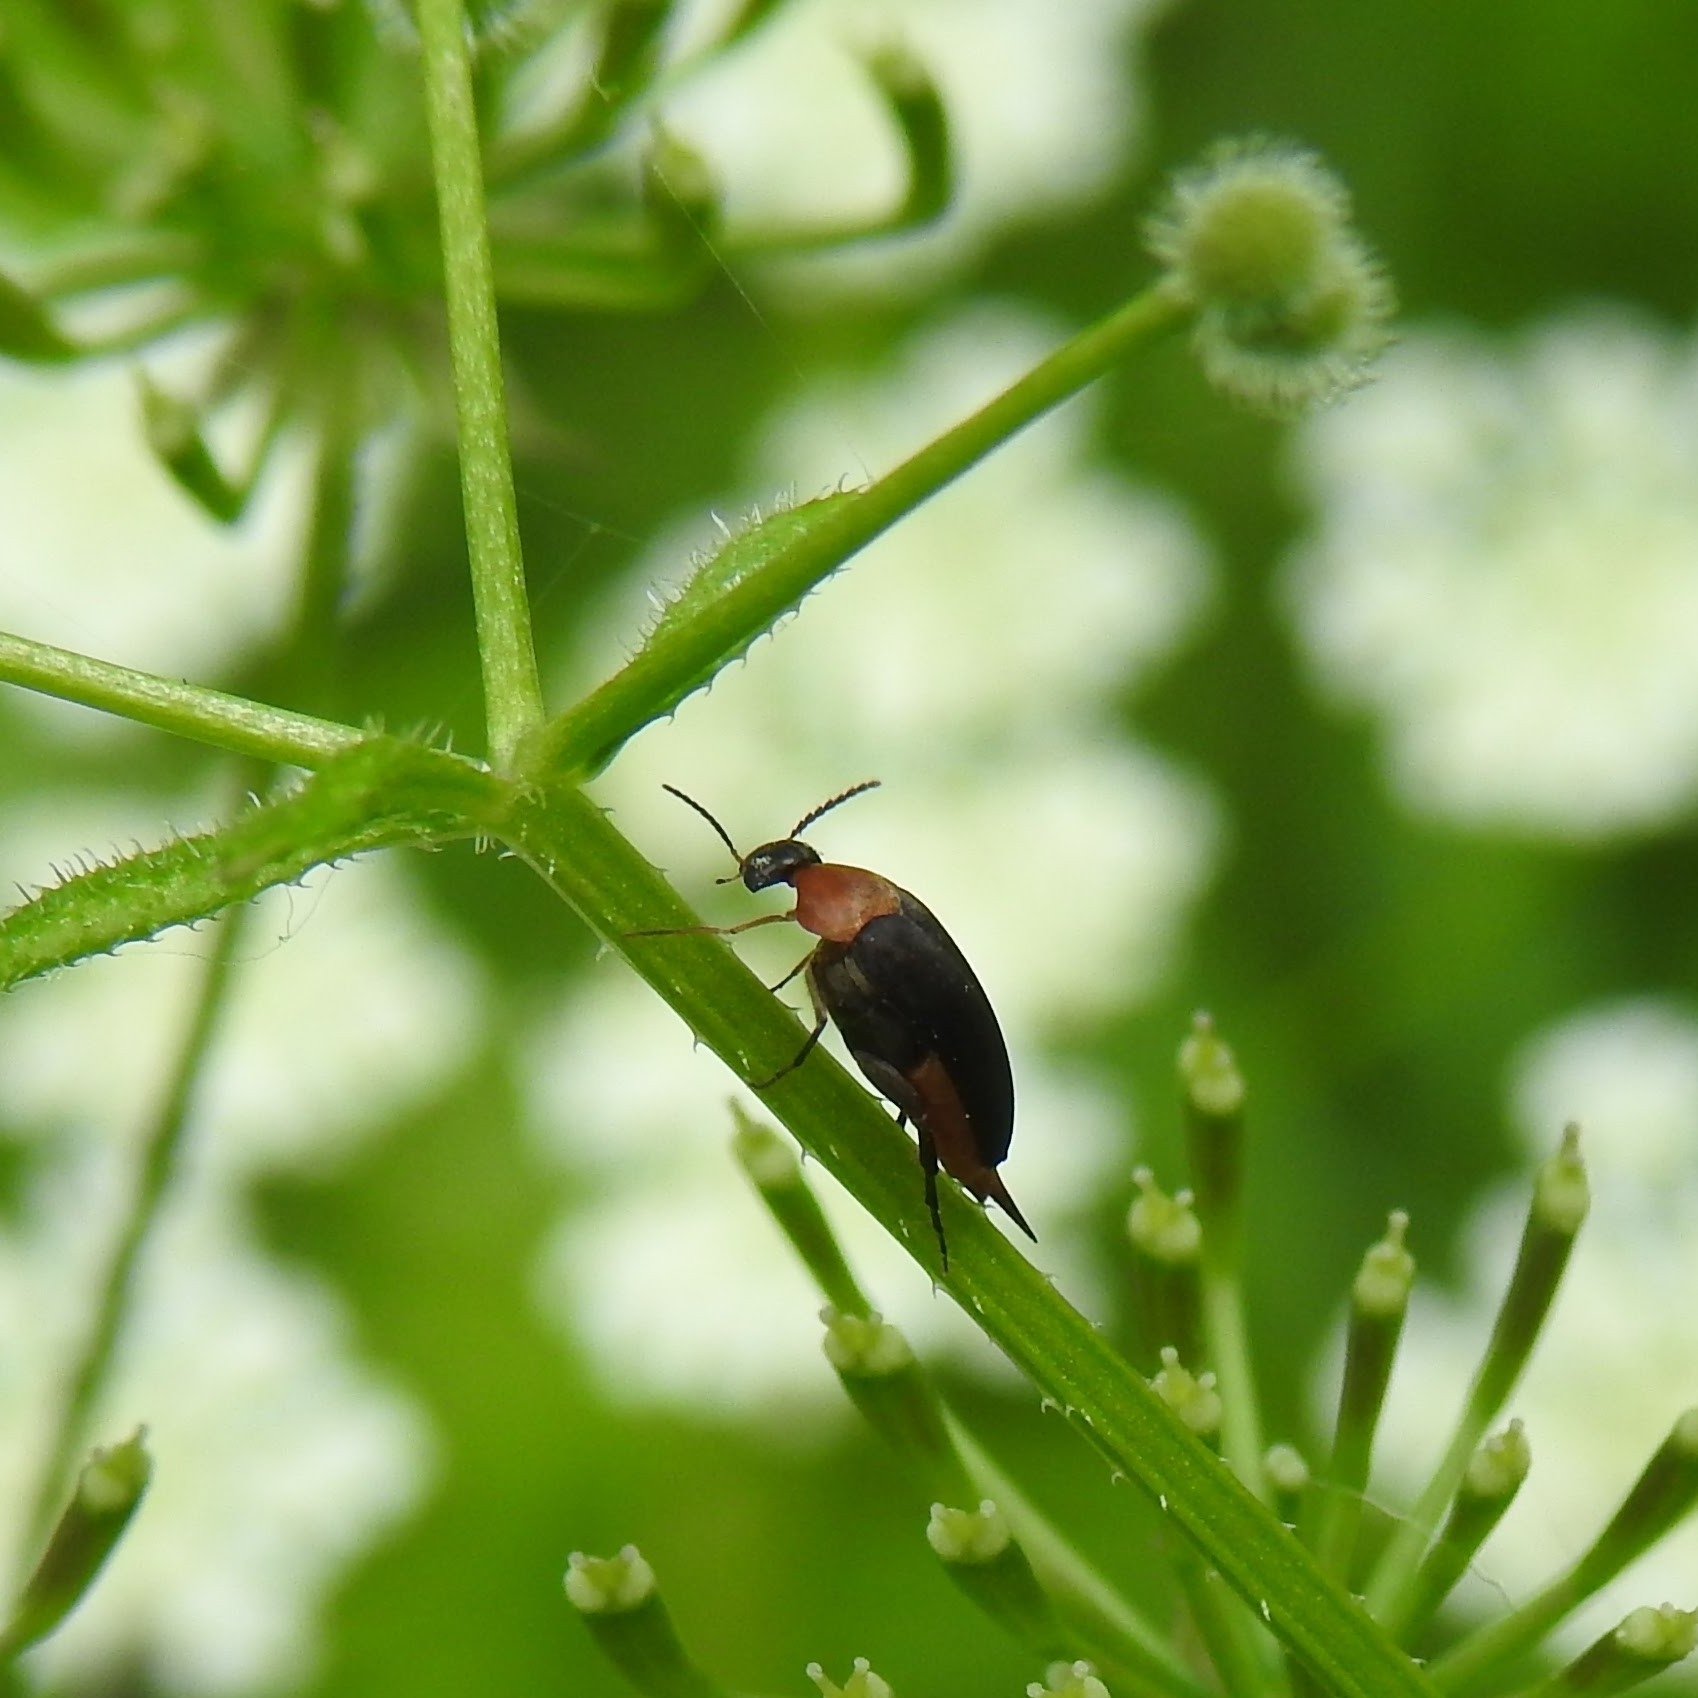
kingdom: Animalia
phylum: Arthropoda
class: Insecta
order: Coleoptera
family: Mordellidae
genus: Mordellochroa
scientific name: Mordellochroa abdominalis
